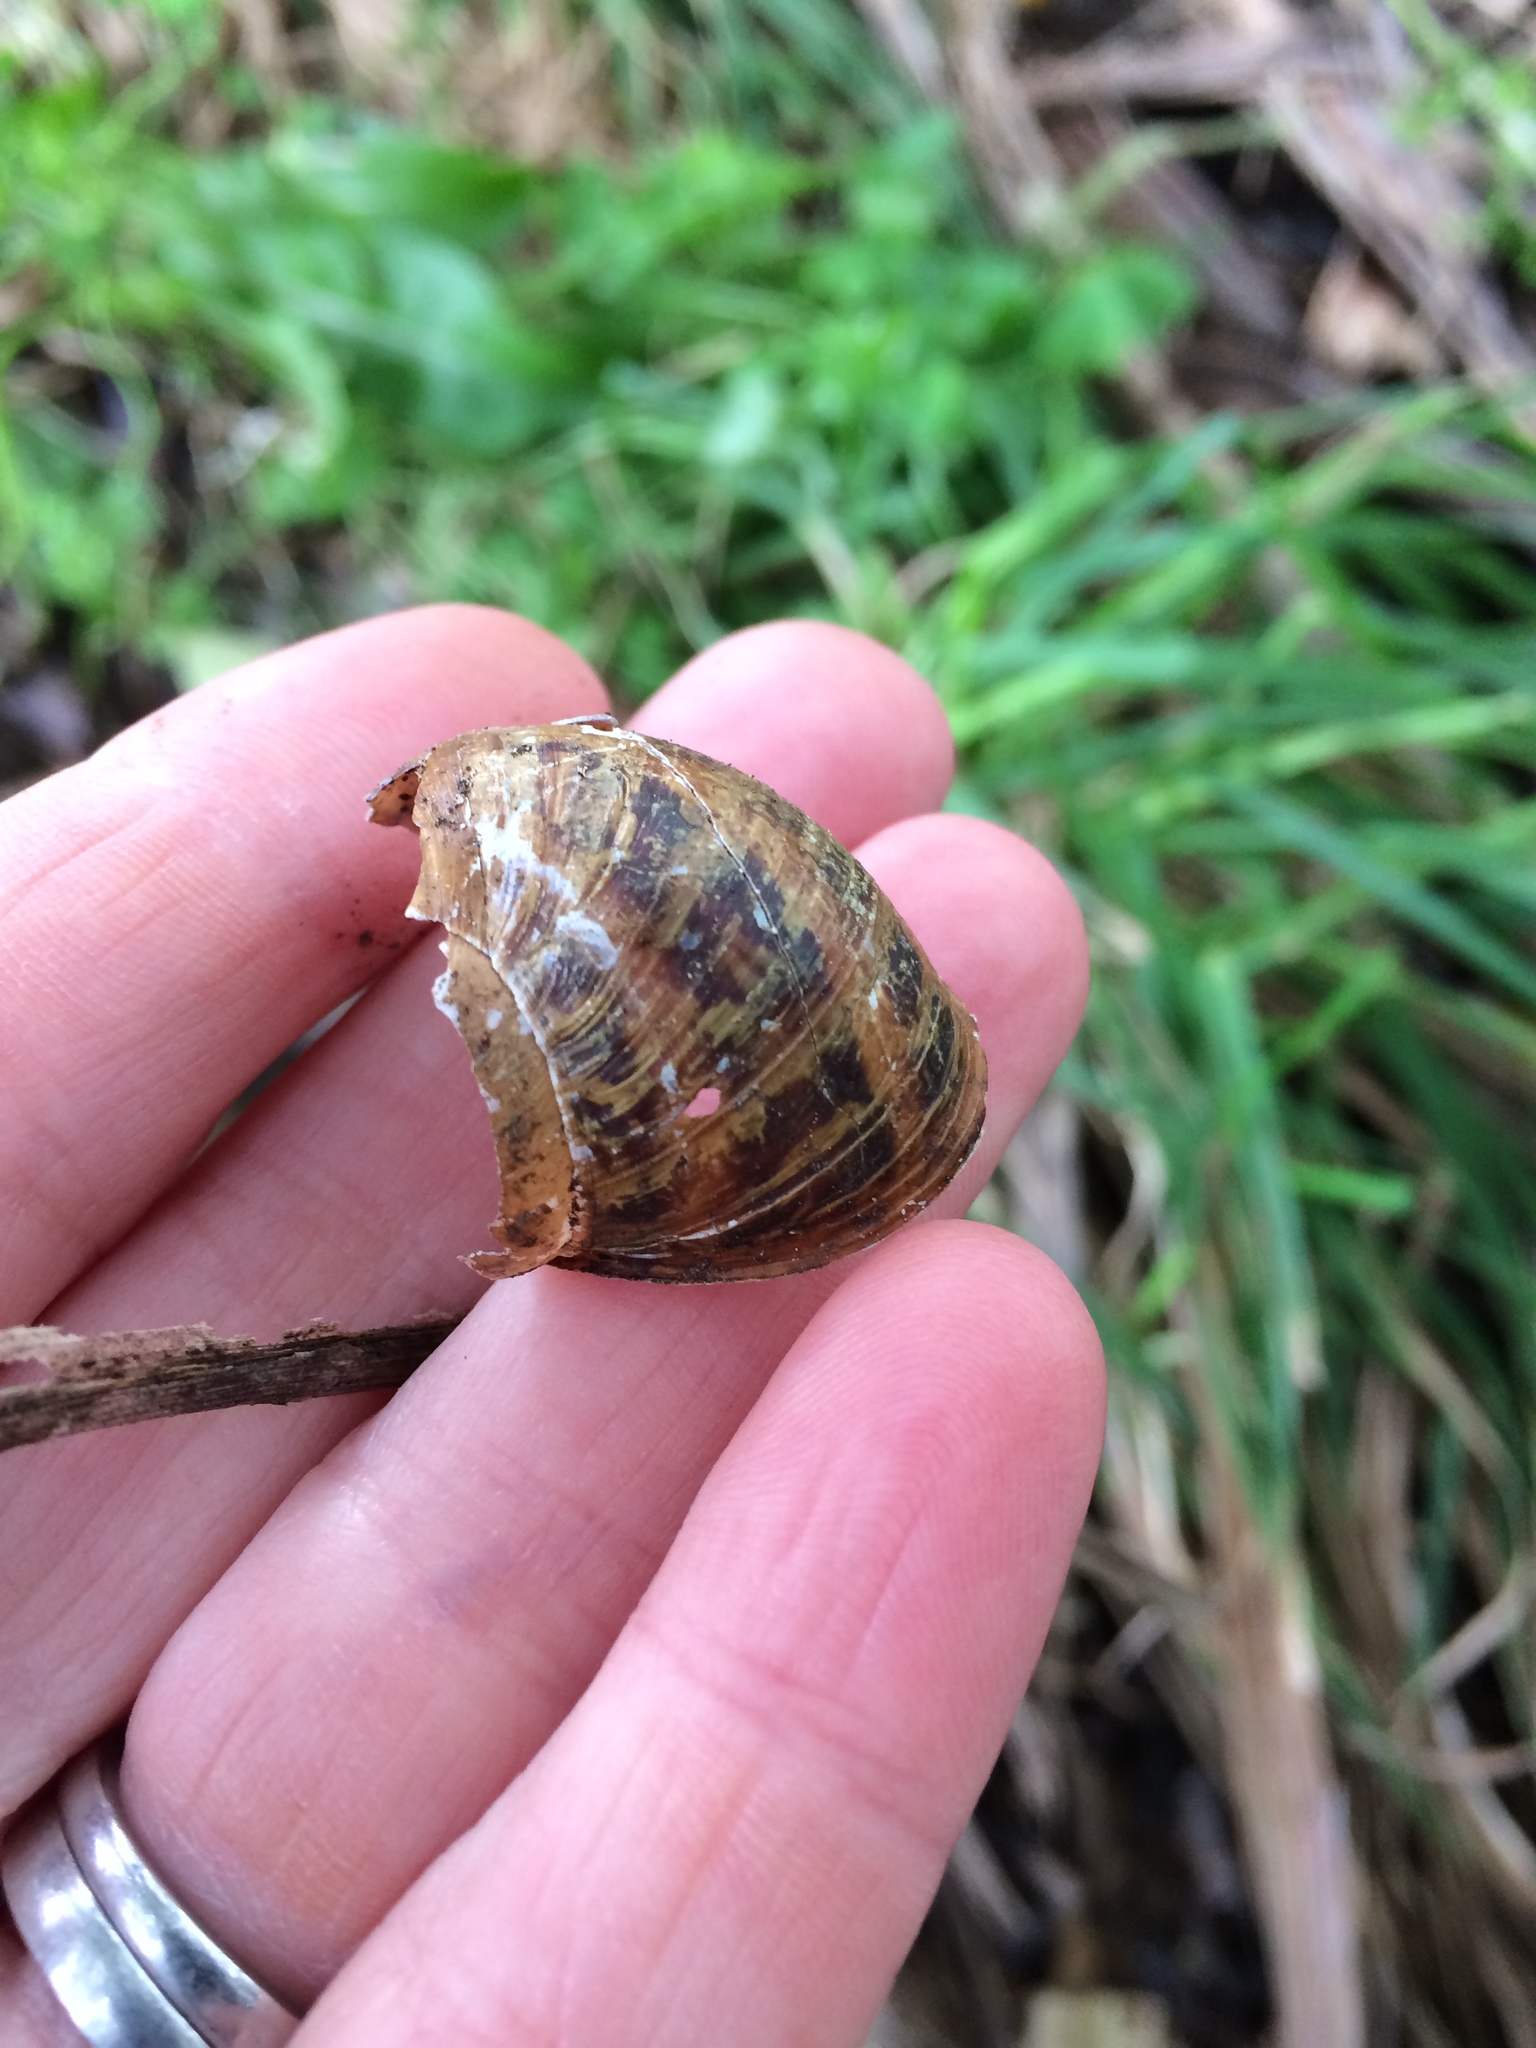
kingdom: Animalia
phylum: Mollusca
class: Gastropoda
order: Stylommatophora
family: Helicidae
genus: Cornu
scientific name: Cornu aspersum
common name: Brown garden snail
